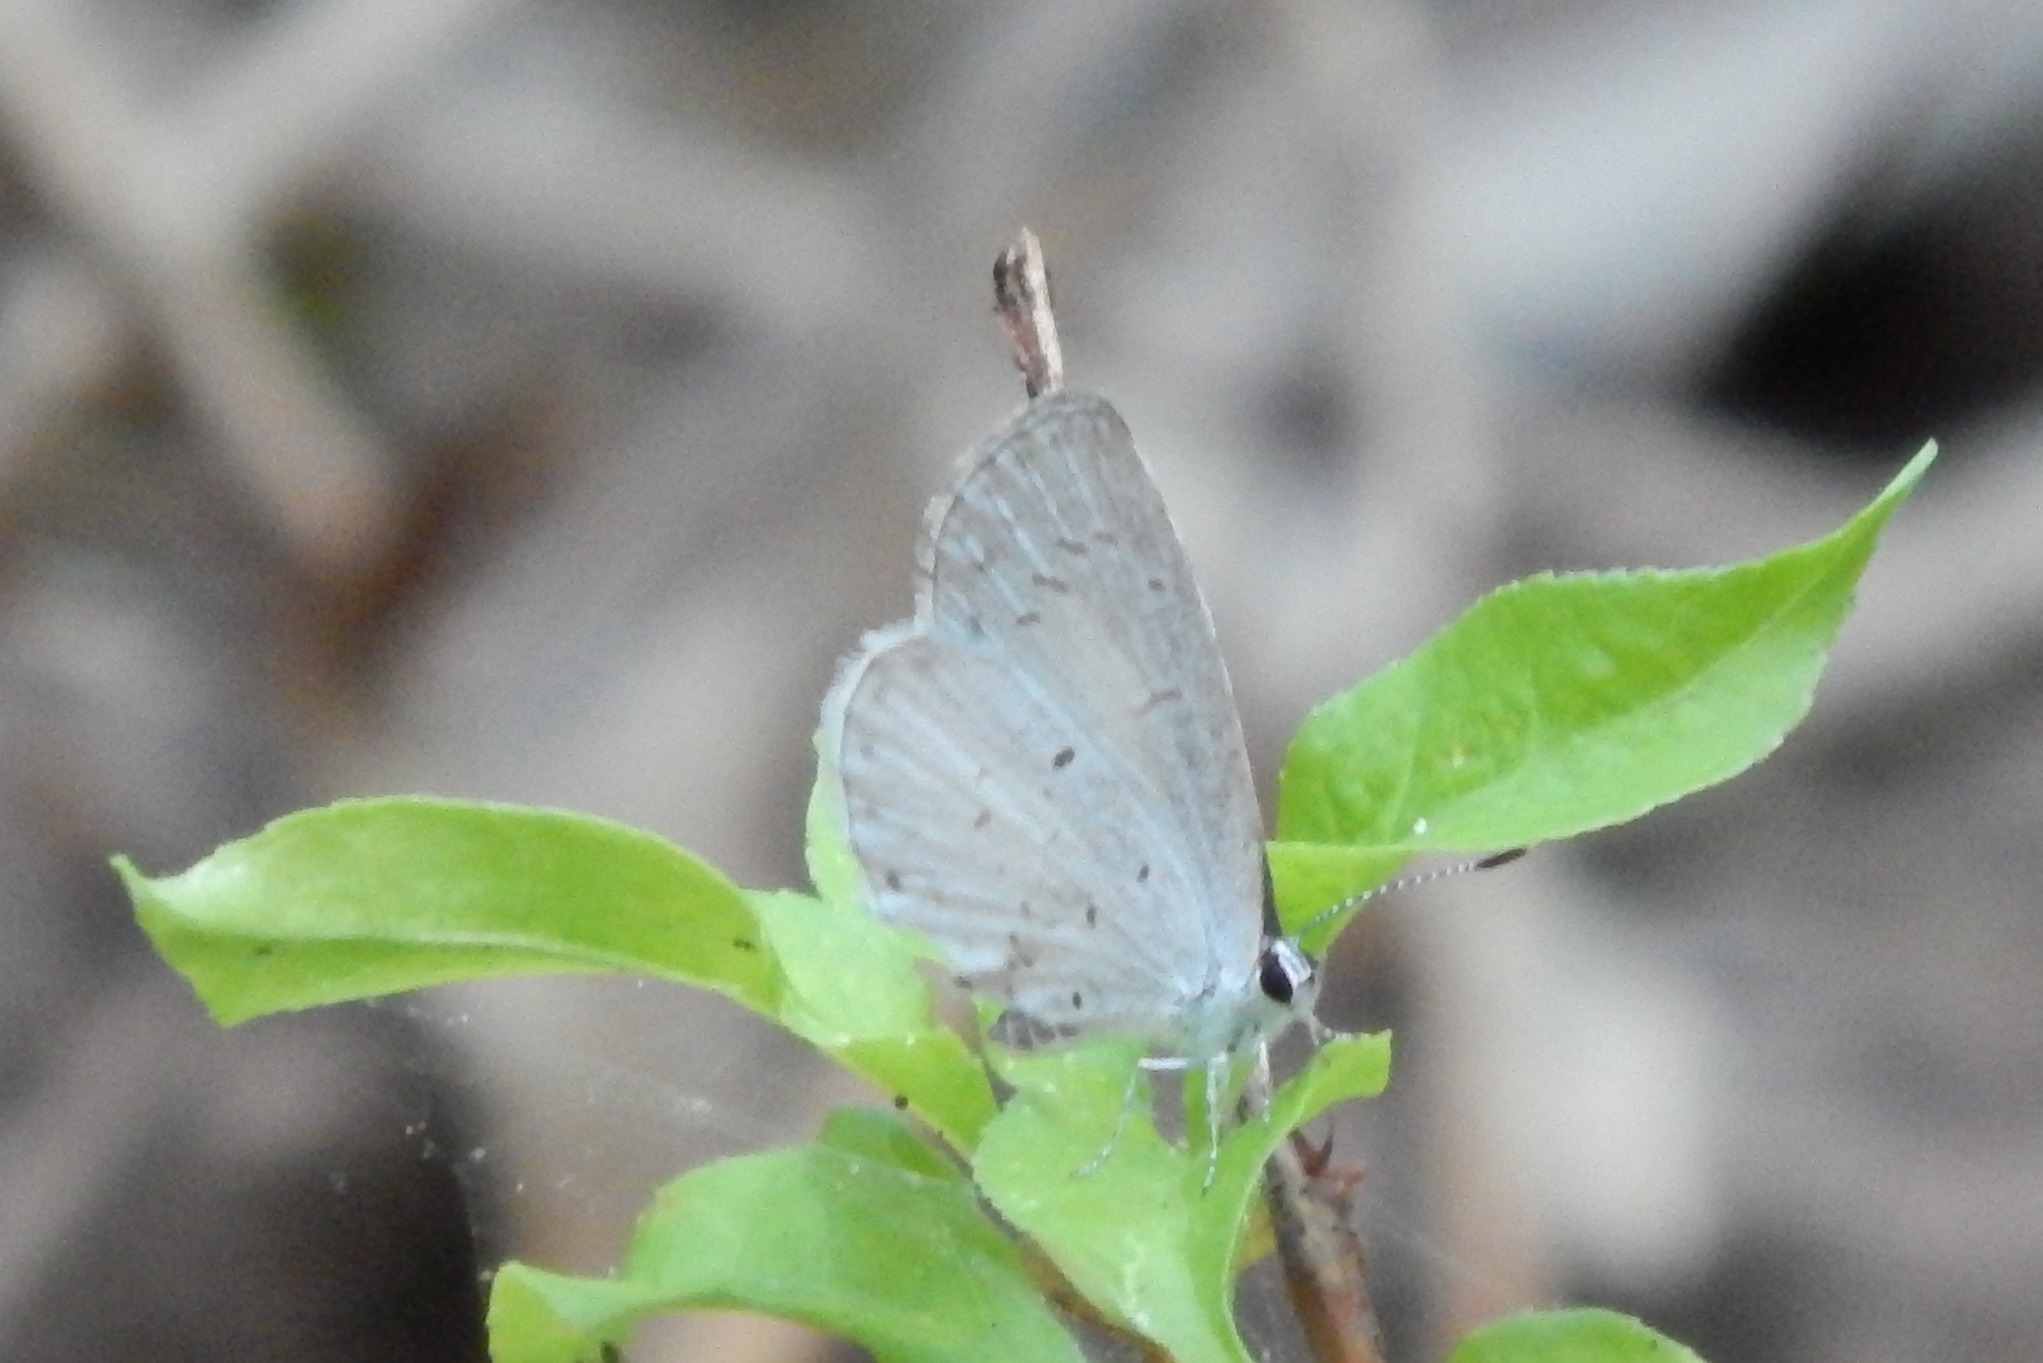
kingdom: Animalia
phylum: Arthropoda
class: Insecta
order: Lepidoptera
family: Lycaenidae
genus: Cyaniris
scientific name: Cyaniris neglecta
